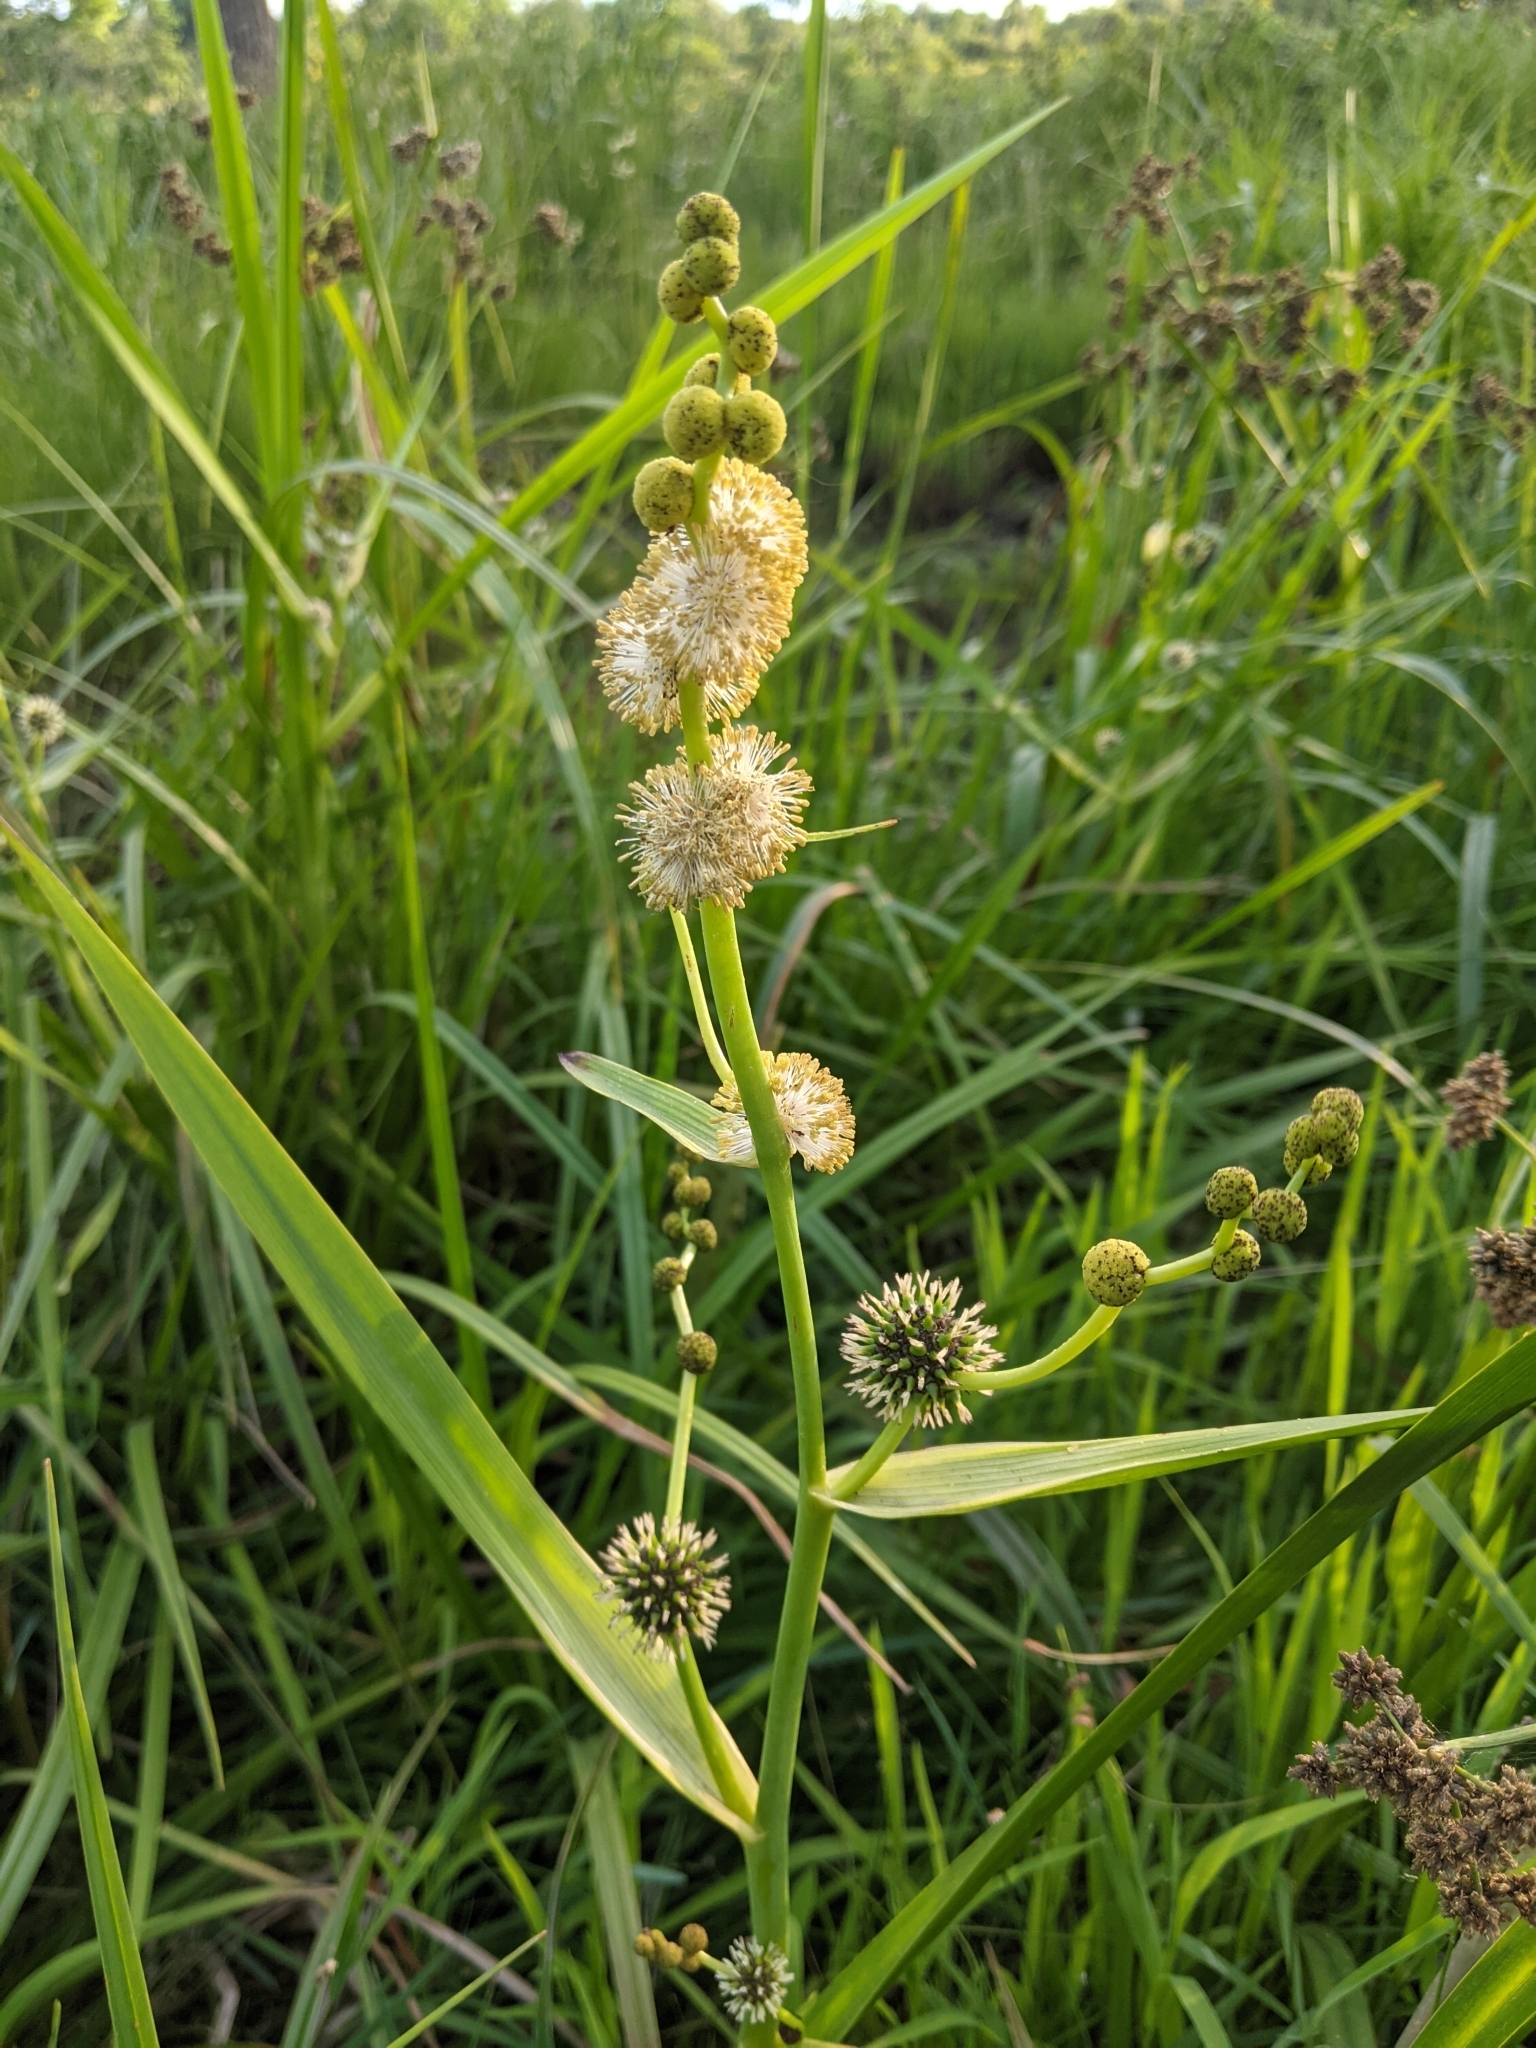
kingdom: Plantae
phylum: Tracheophyta
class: Liliopsida
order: Poales
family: Typhaceae
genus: Sparganium
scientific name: Sparganium eurycarpum
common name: Broad-fruited burreed
